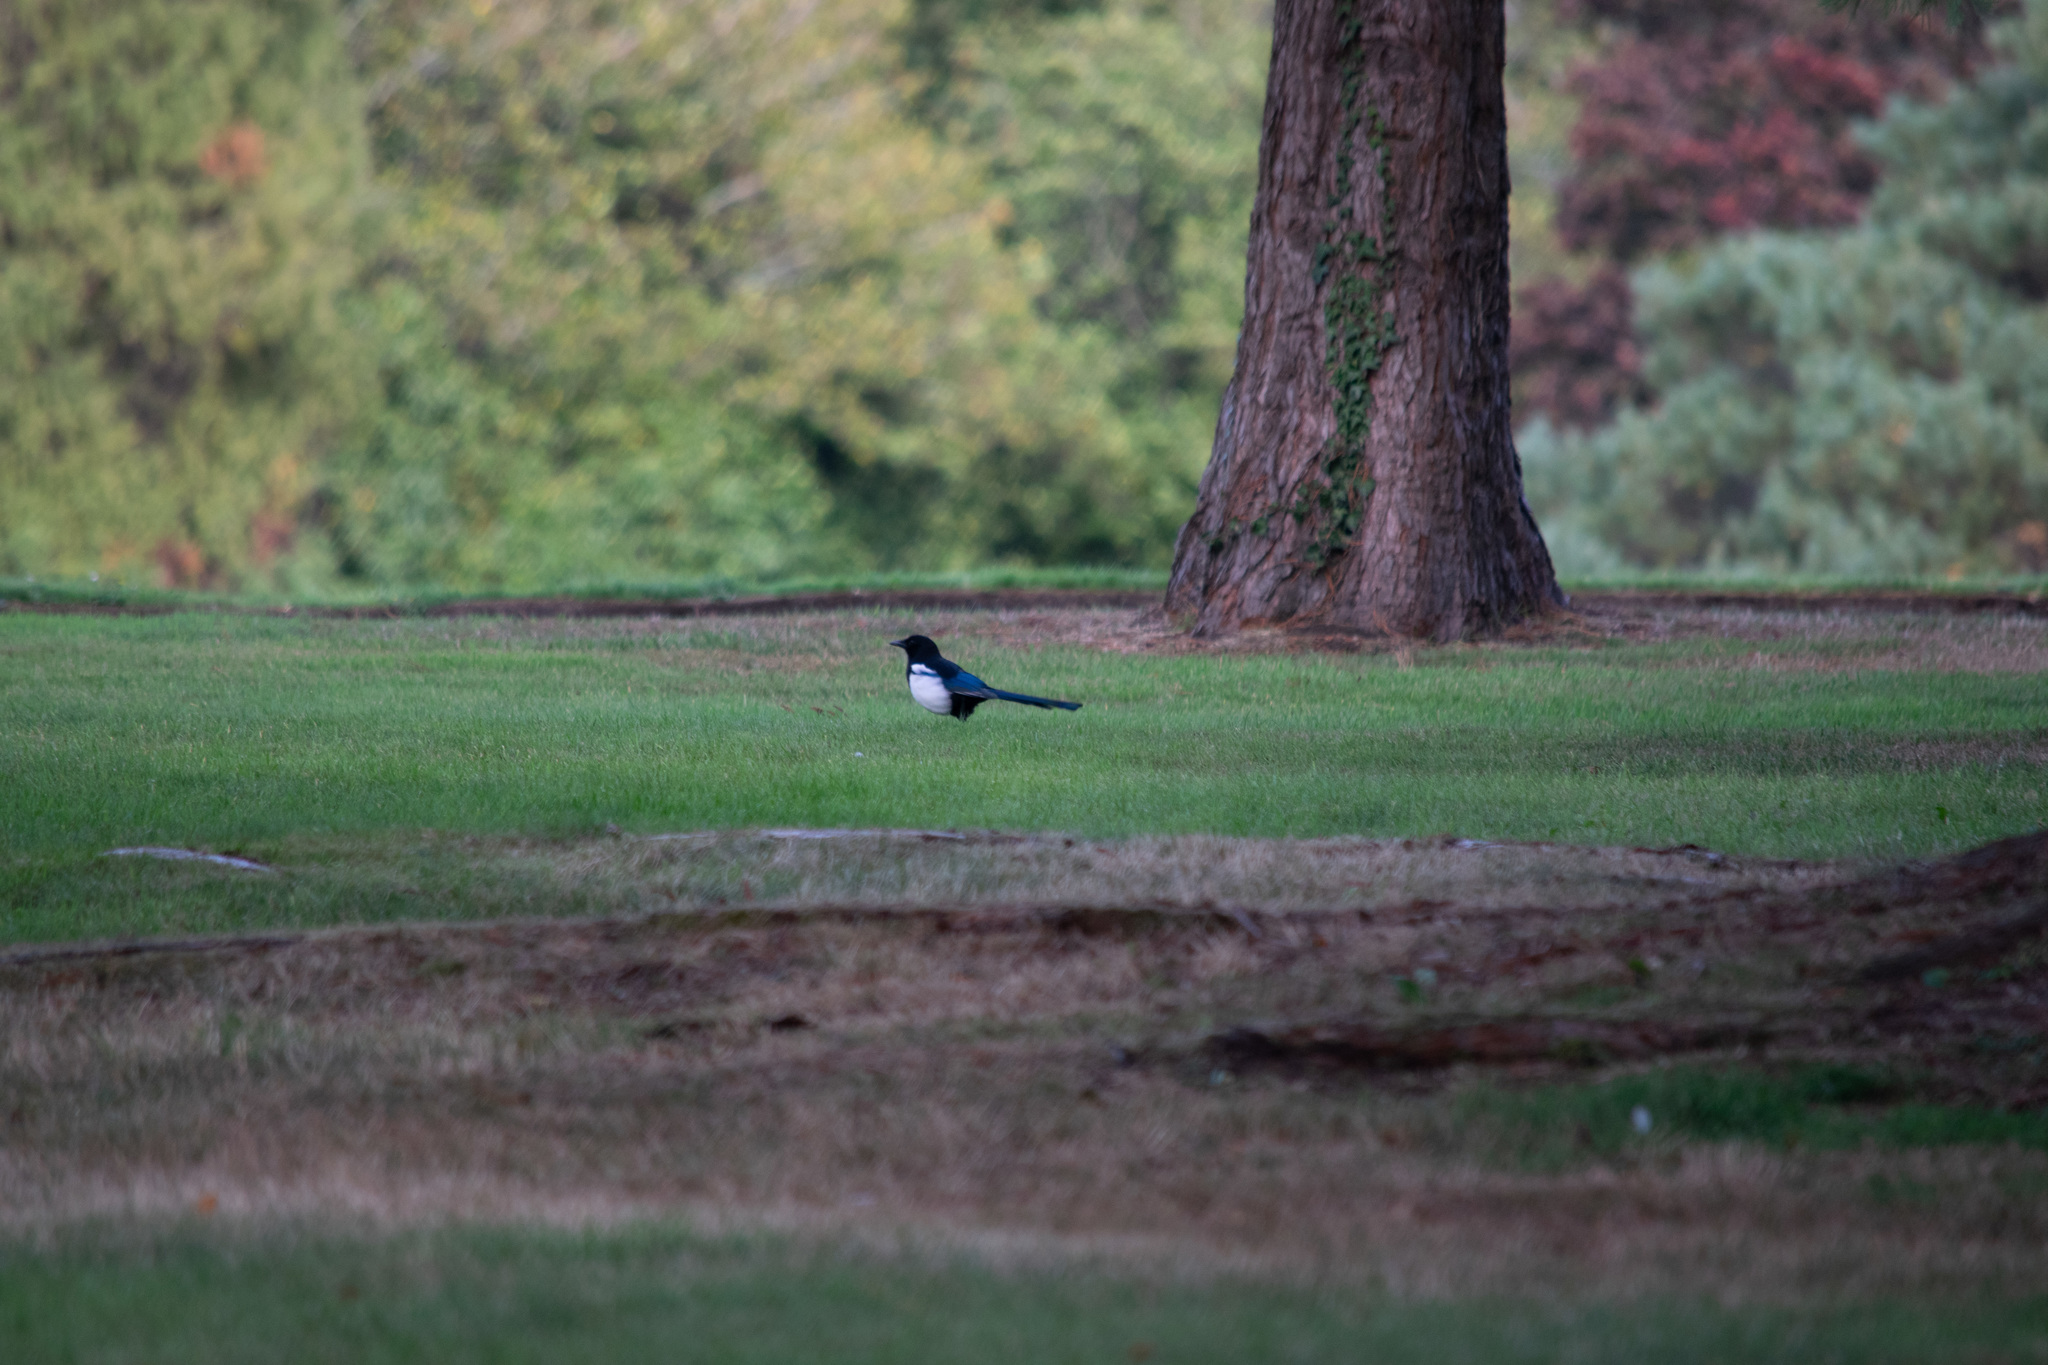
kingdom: Animalia
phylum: Chordata
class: Aves
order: Passeriformes
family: Corvidae
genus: Pica
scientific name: Pica pica
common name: Eurasian magpie
